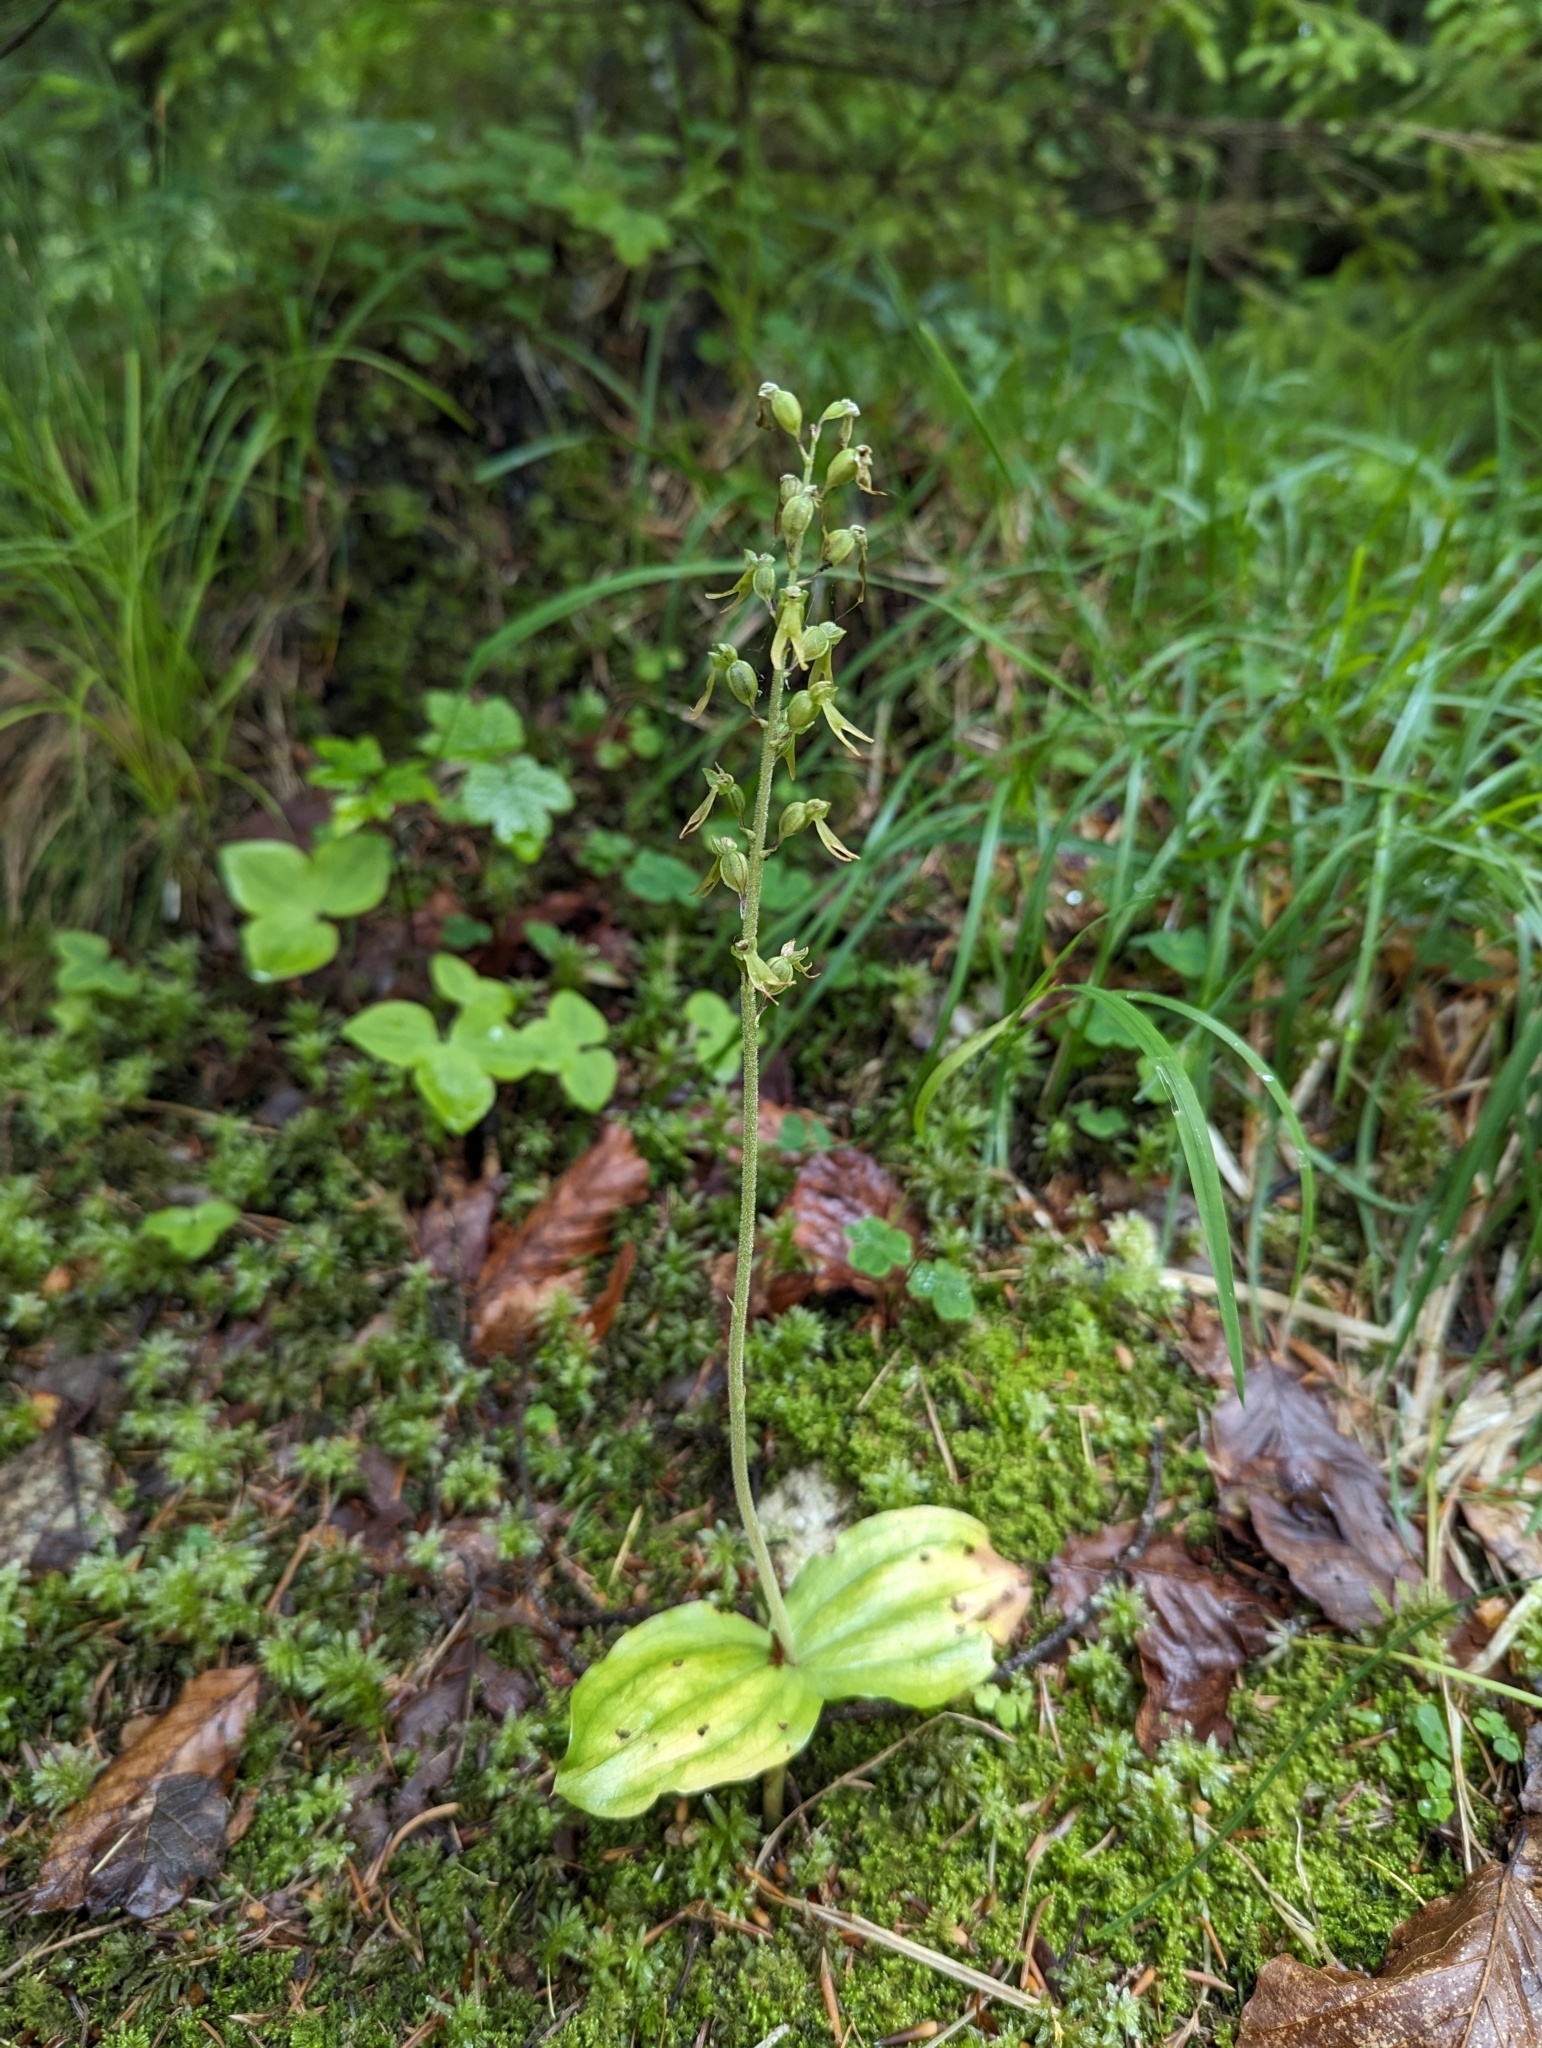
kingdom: Plantae
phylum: Tracheophyta
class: Liliopsida
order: Asparagales
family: Orchidaceae
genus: Neottia
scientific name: Neottia ovata
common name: Common twayblade
